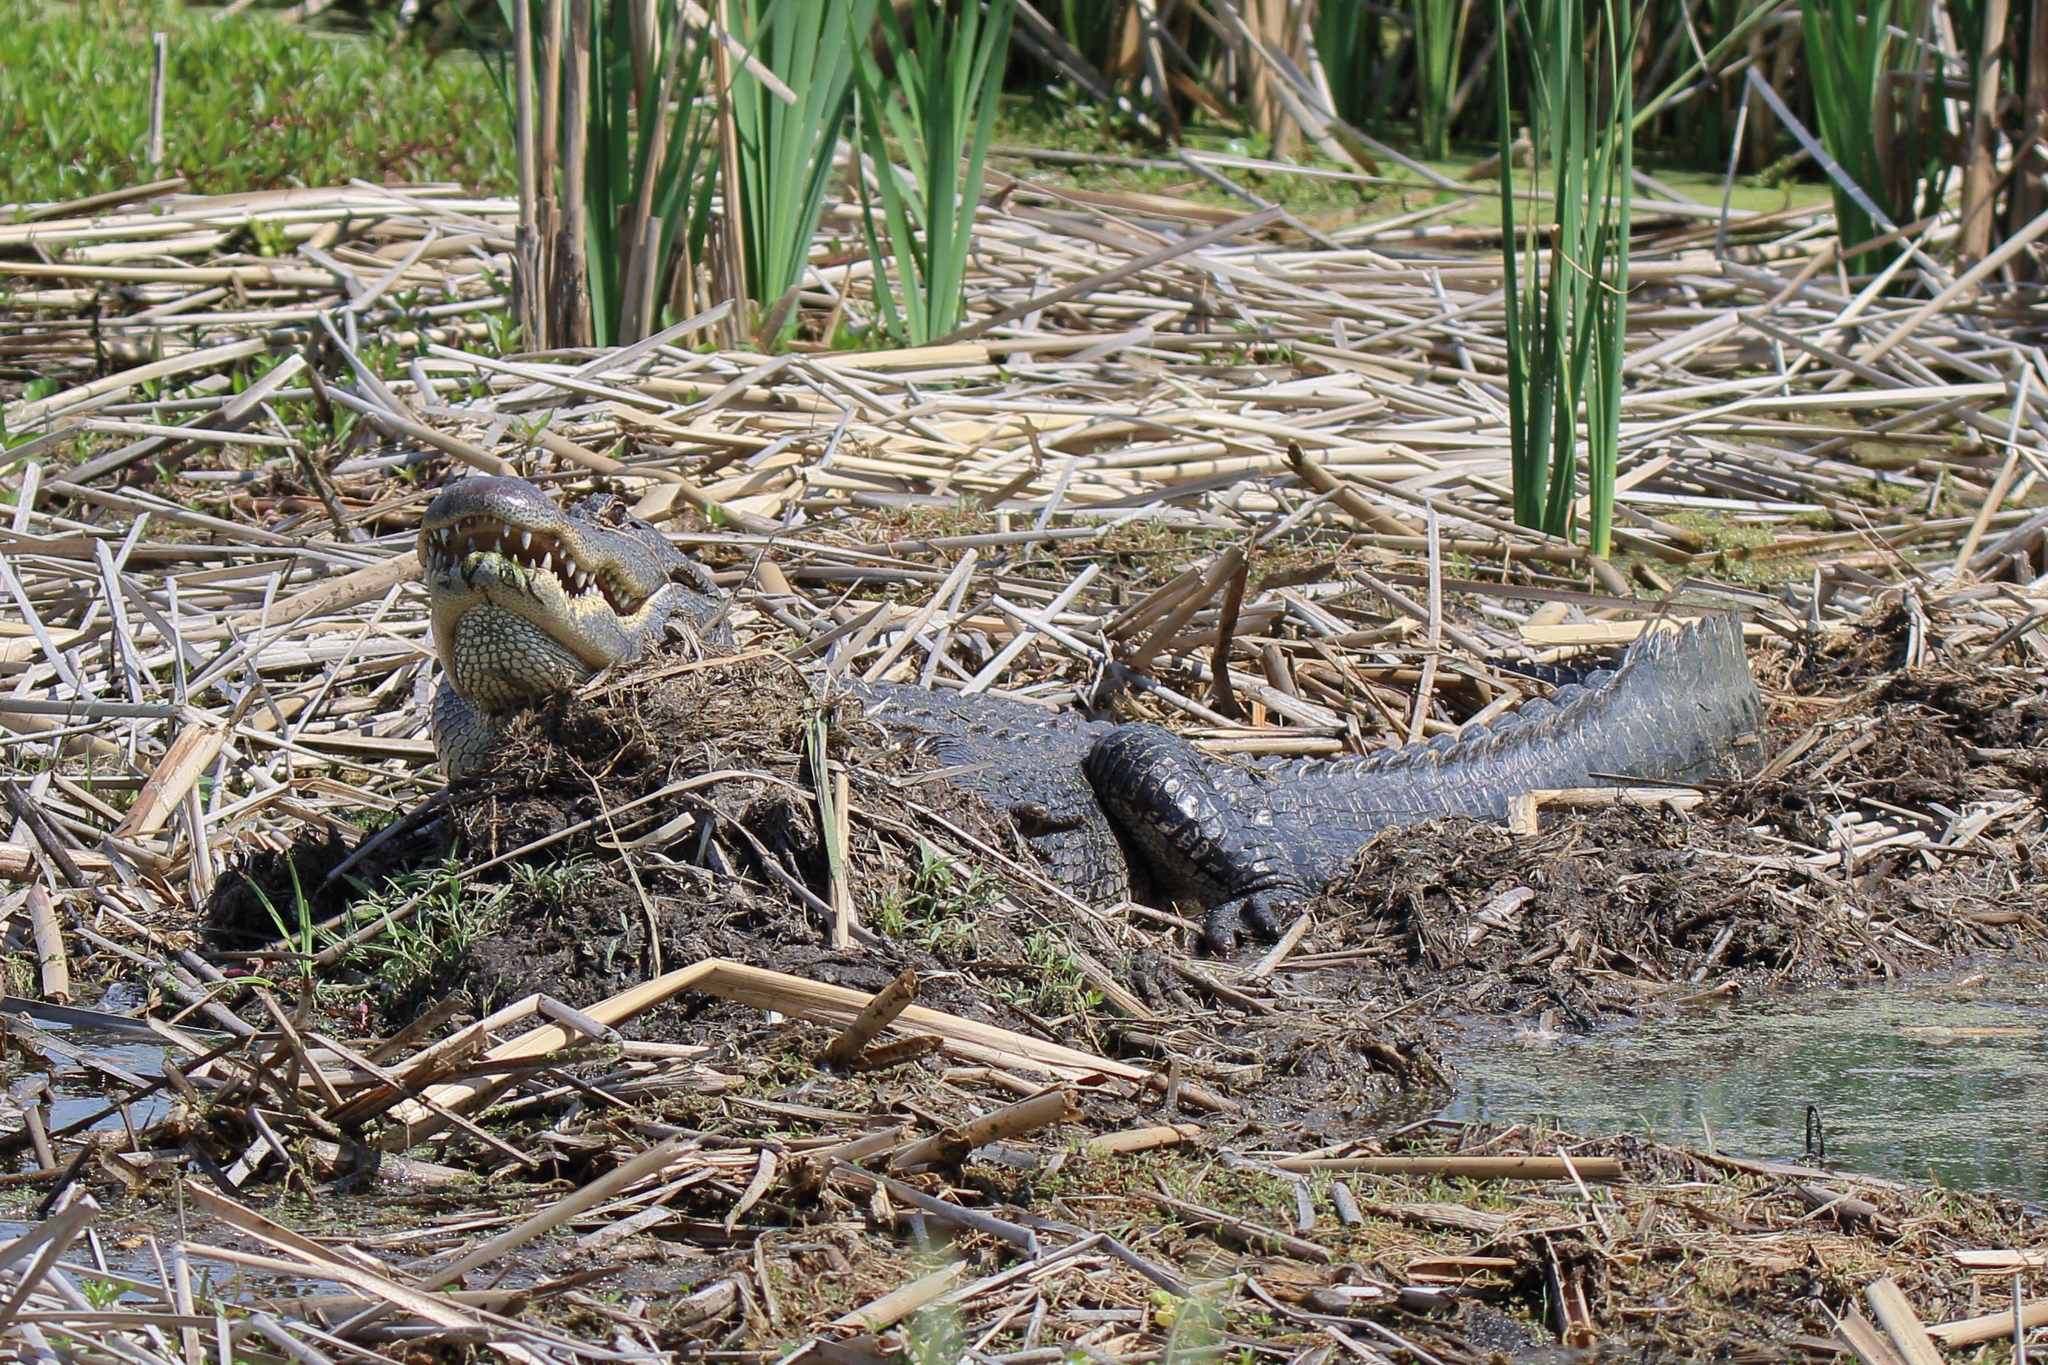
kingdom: Animalia
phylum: Chordata
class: Crocodylia
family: Alligatoridae
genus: Alligator
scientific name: Alligator mississippiensis
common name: American alligator
